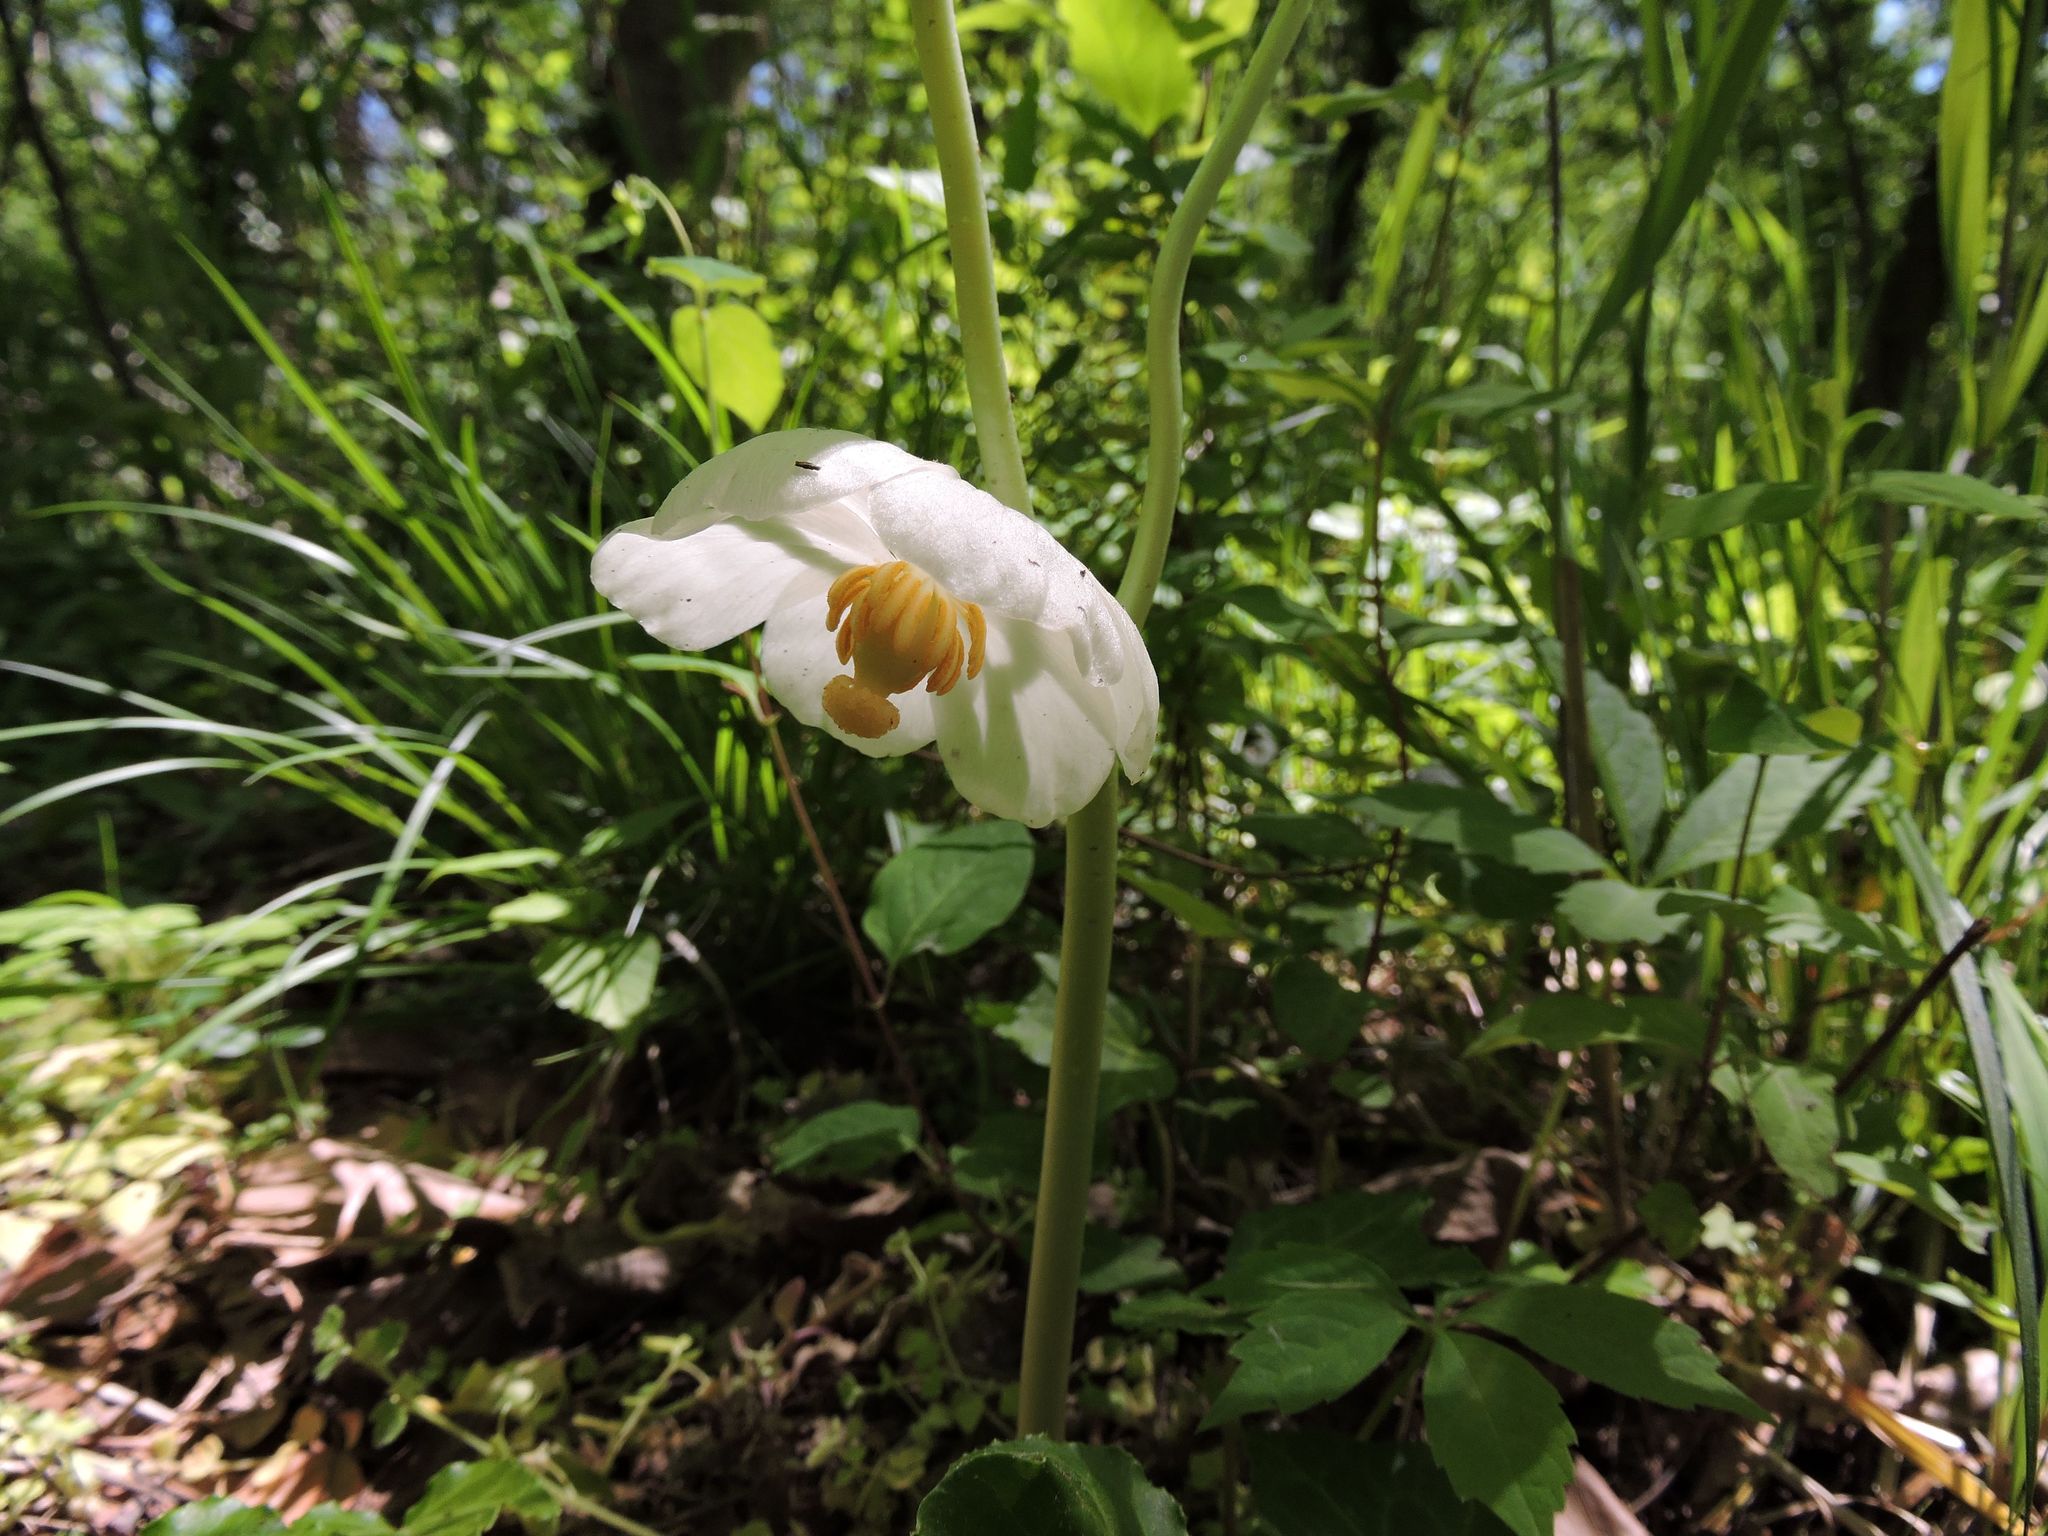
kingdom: Plantae
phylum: Tracheophyta
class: Magnoliopsida
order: Ranunculales
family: Berberidaceae
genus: Podophyllum
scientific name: Podophyllum peltatum
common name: Wild mandrake
